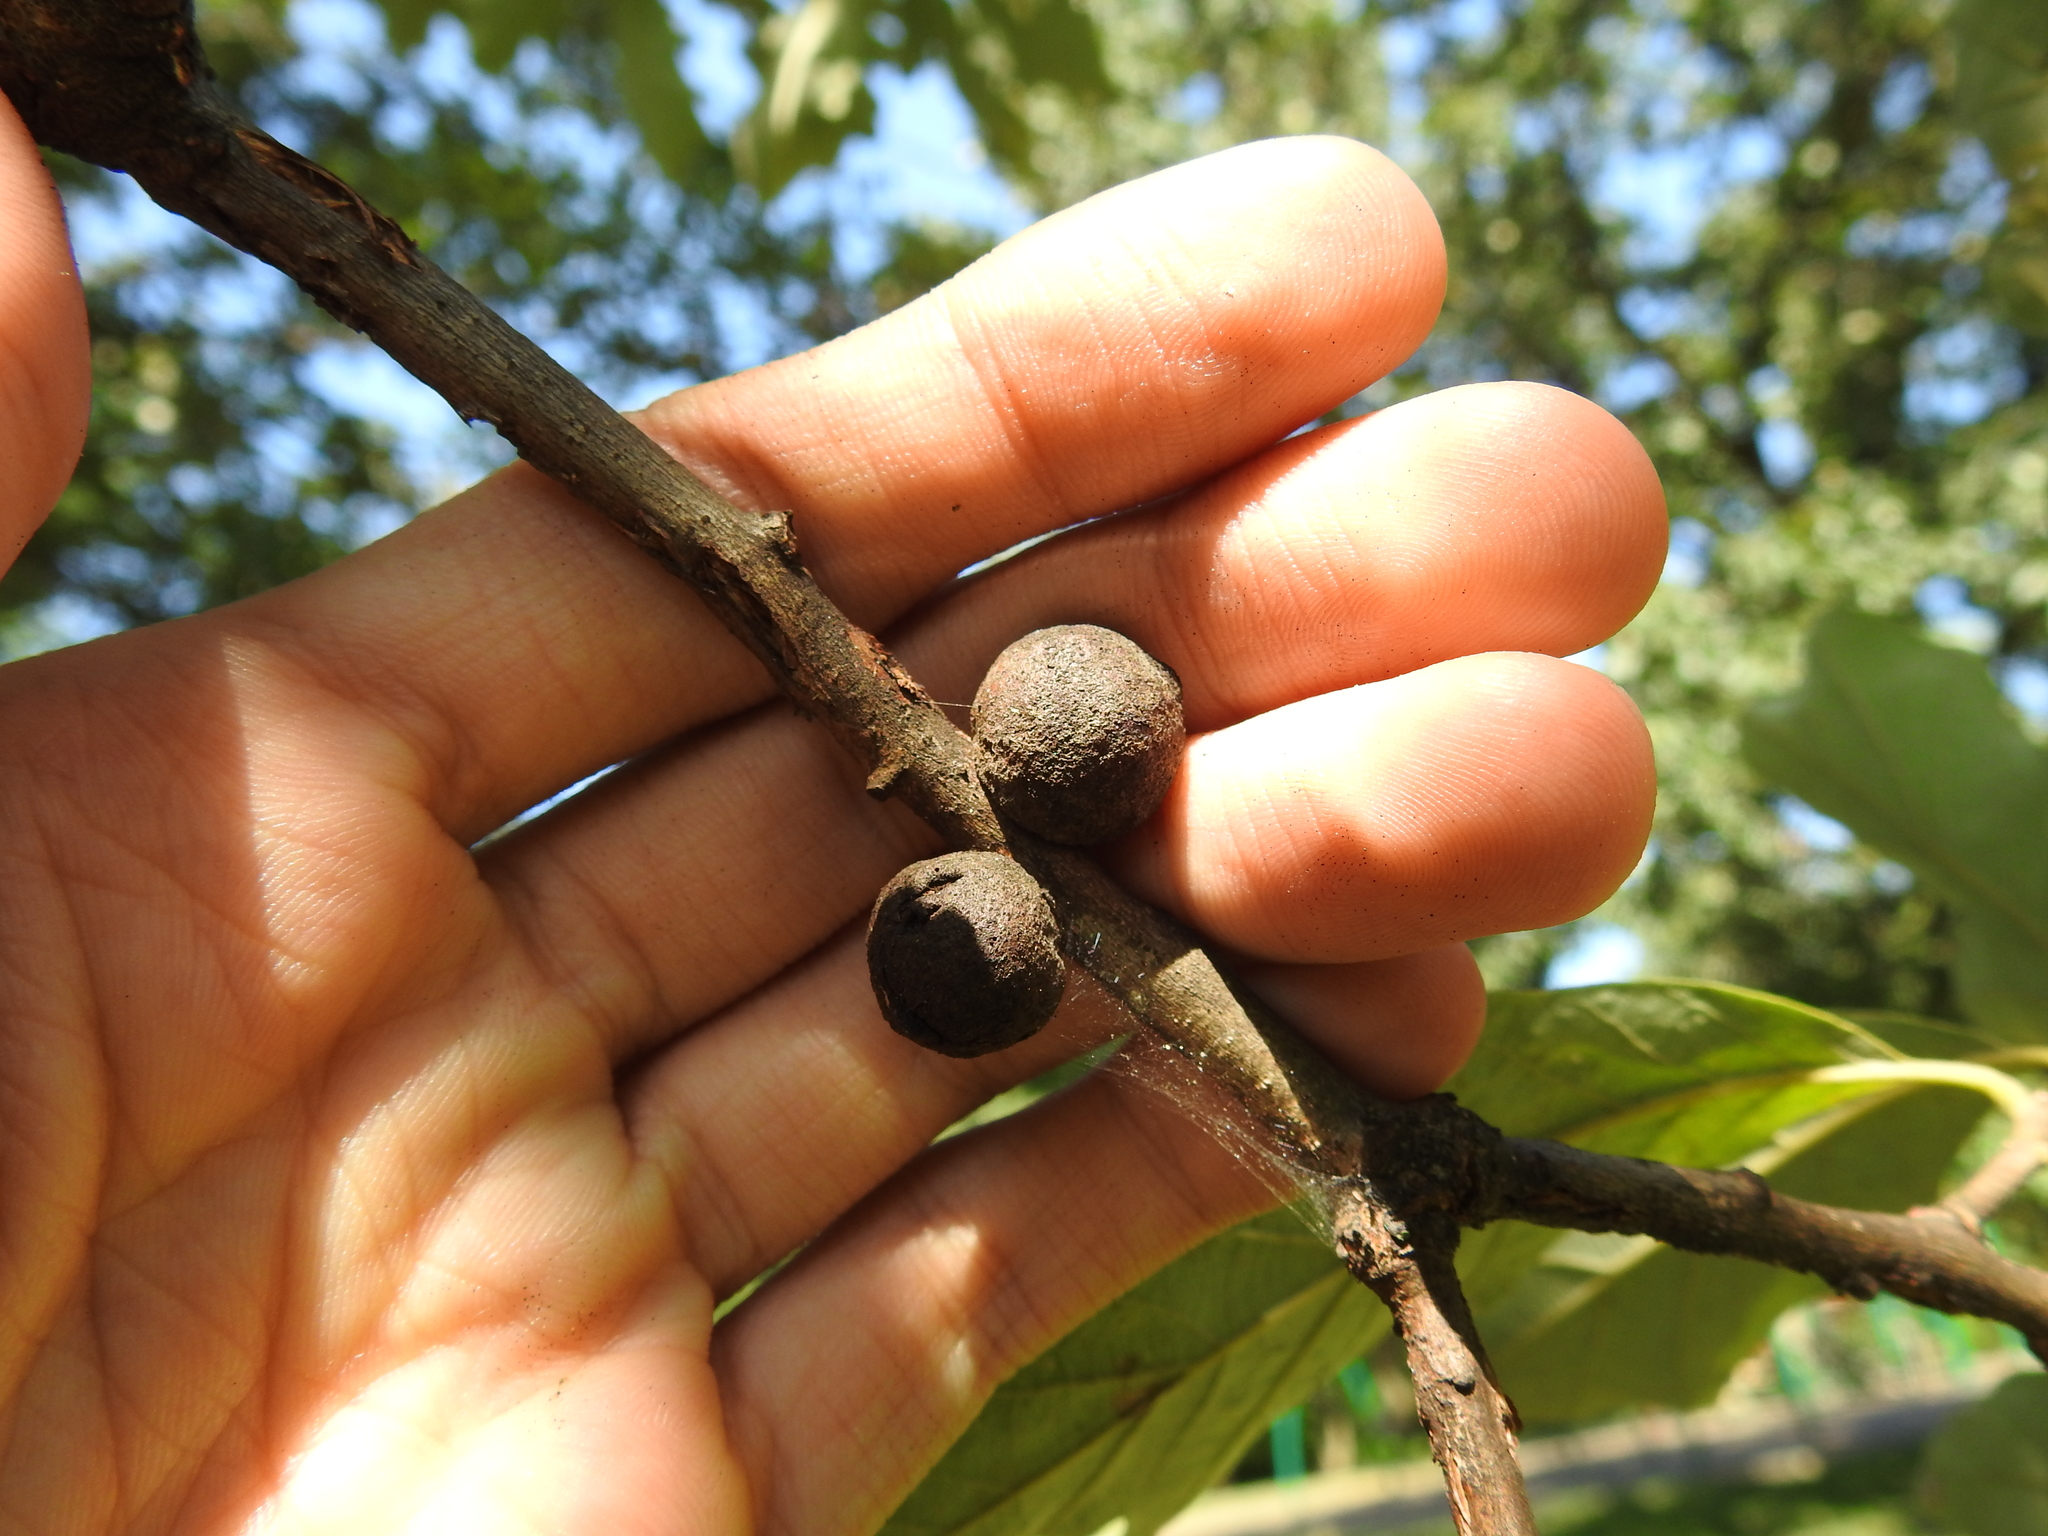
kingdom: Animalia
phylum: Arthropoda
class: Insecta
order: Hymenoptera
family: Cynipidae
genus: Disholcaspis
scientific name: Disholcaspis
